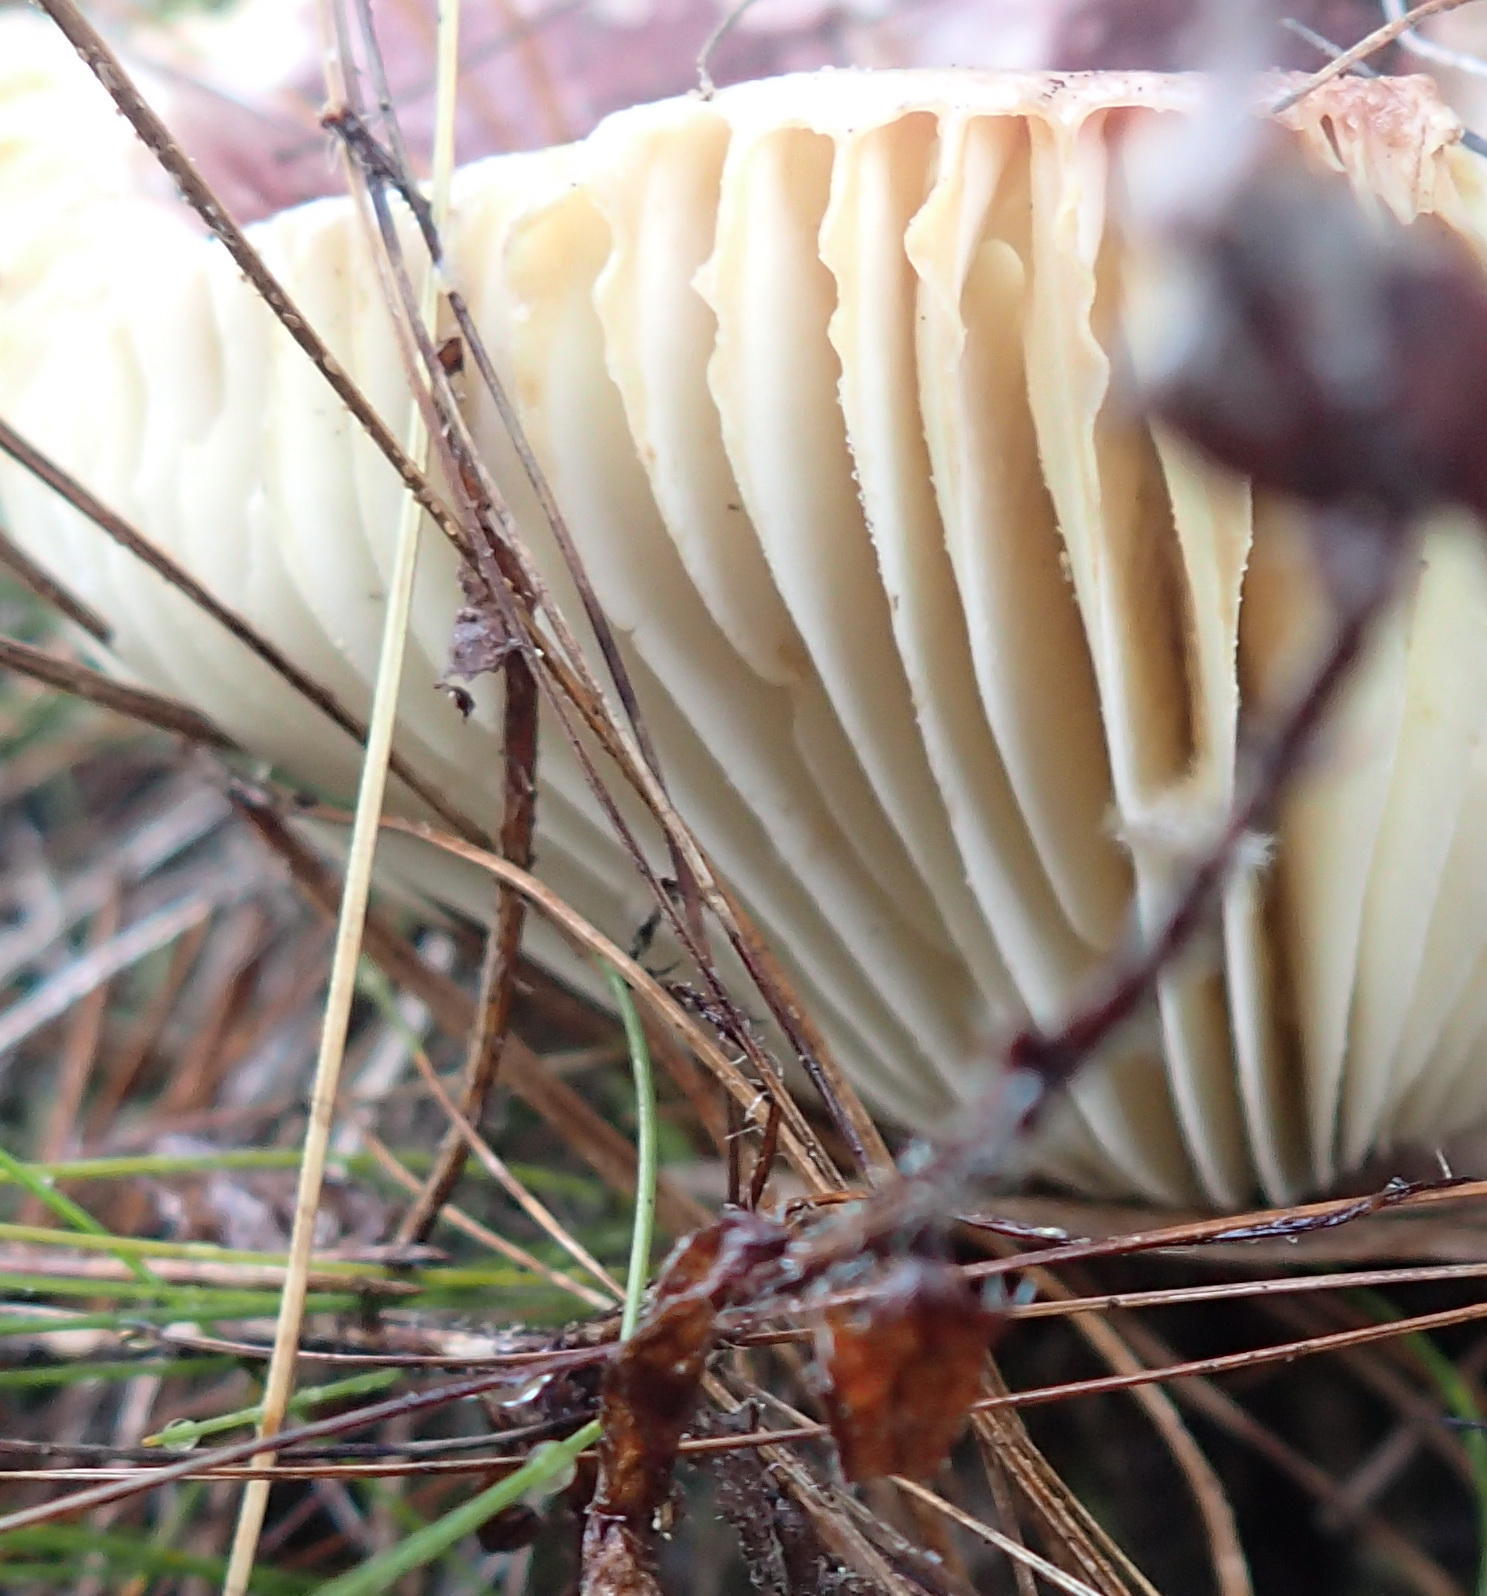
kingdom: Fungi
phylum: Basidiomycota
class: Agaricomycetes
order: Russulales
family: Russulaceae
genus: Russula
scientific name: Russula sardonia
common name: Primrose brittlegill
